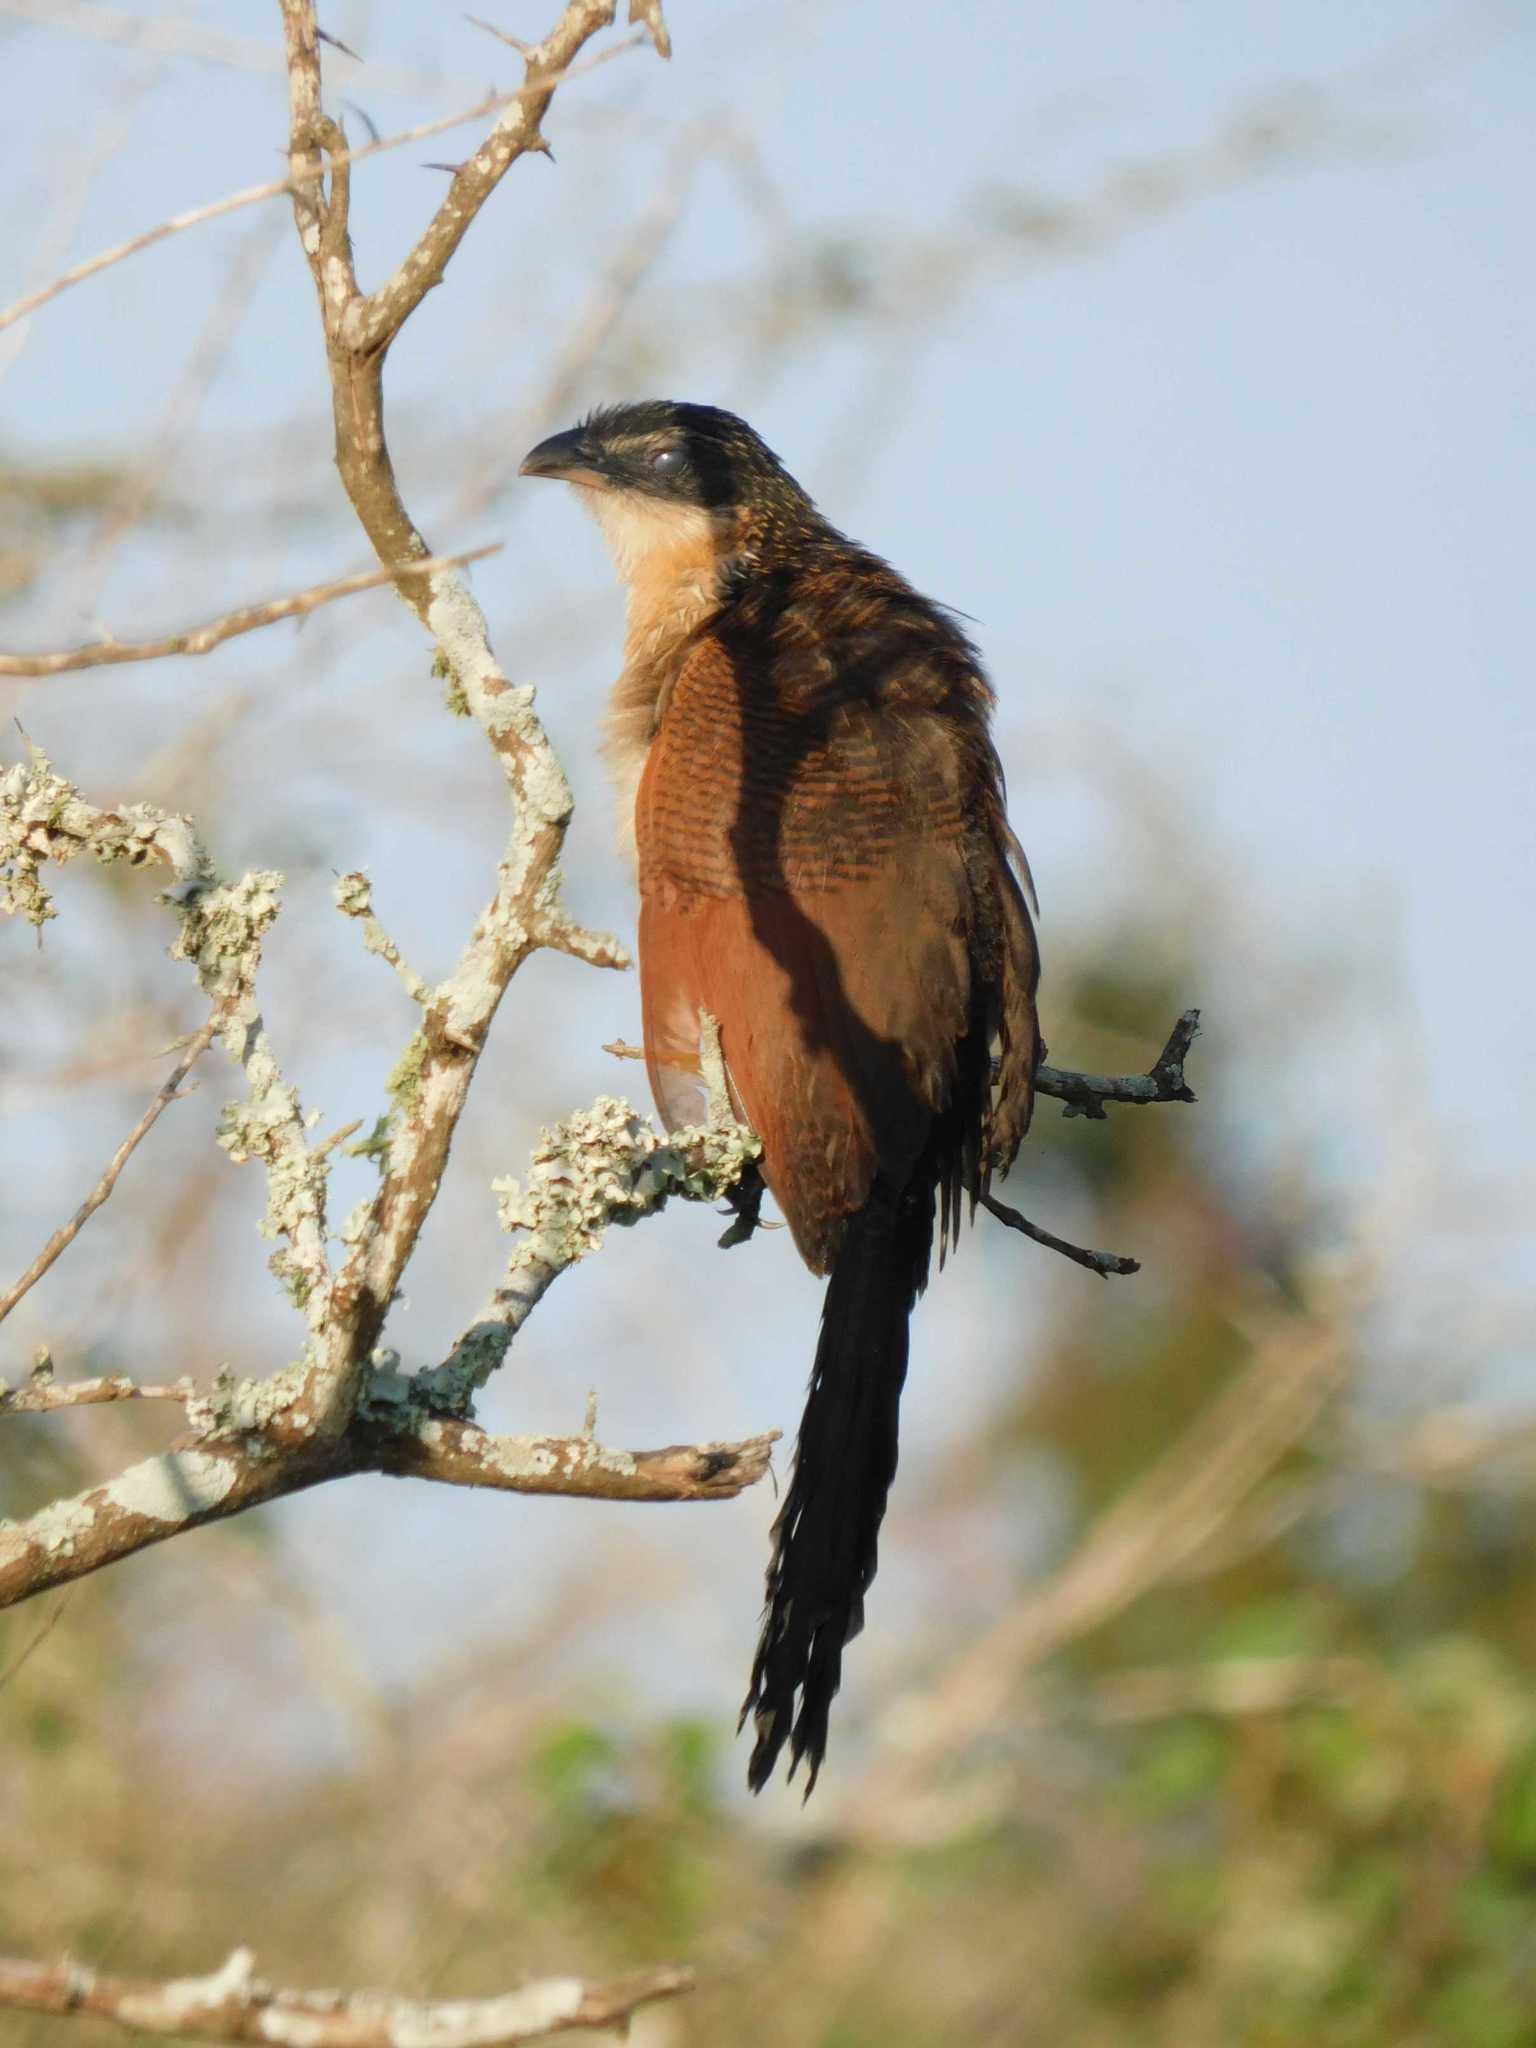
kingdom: Animalia
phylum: Chordata
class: Aves
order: Cuculiformes
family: Cuculidae
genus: Centropus
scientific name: Centropus superciliosus
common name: White-browed coucal
